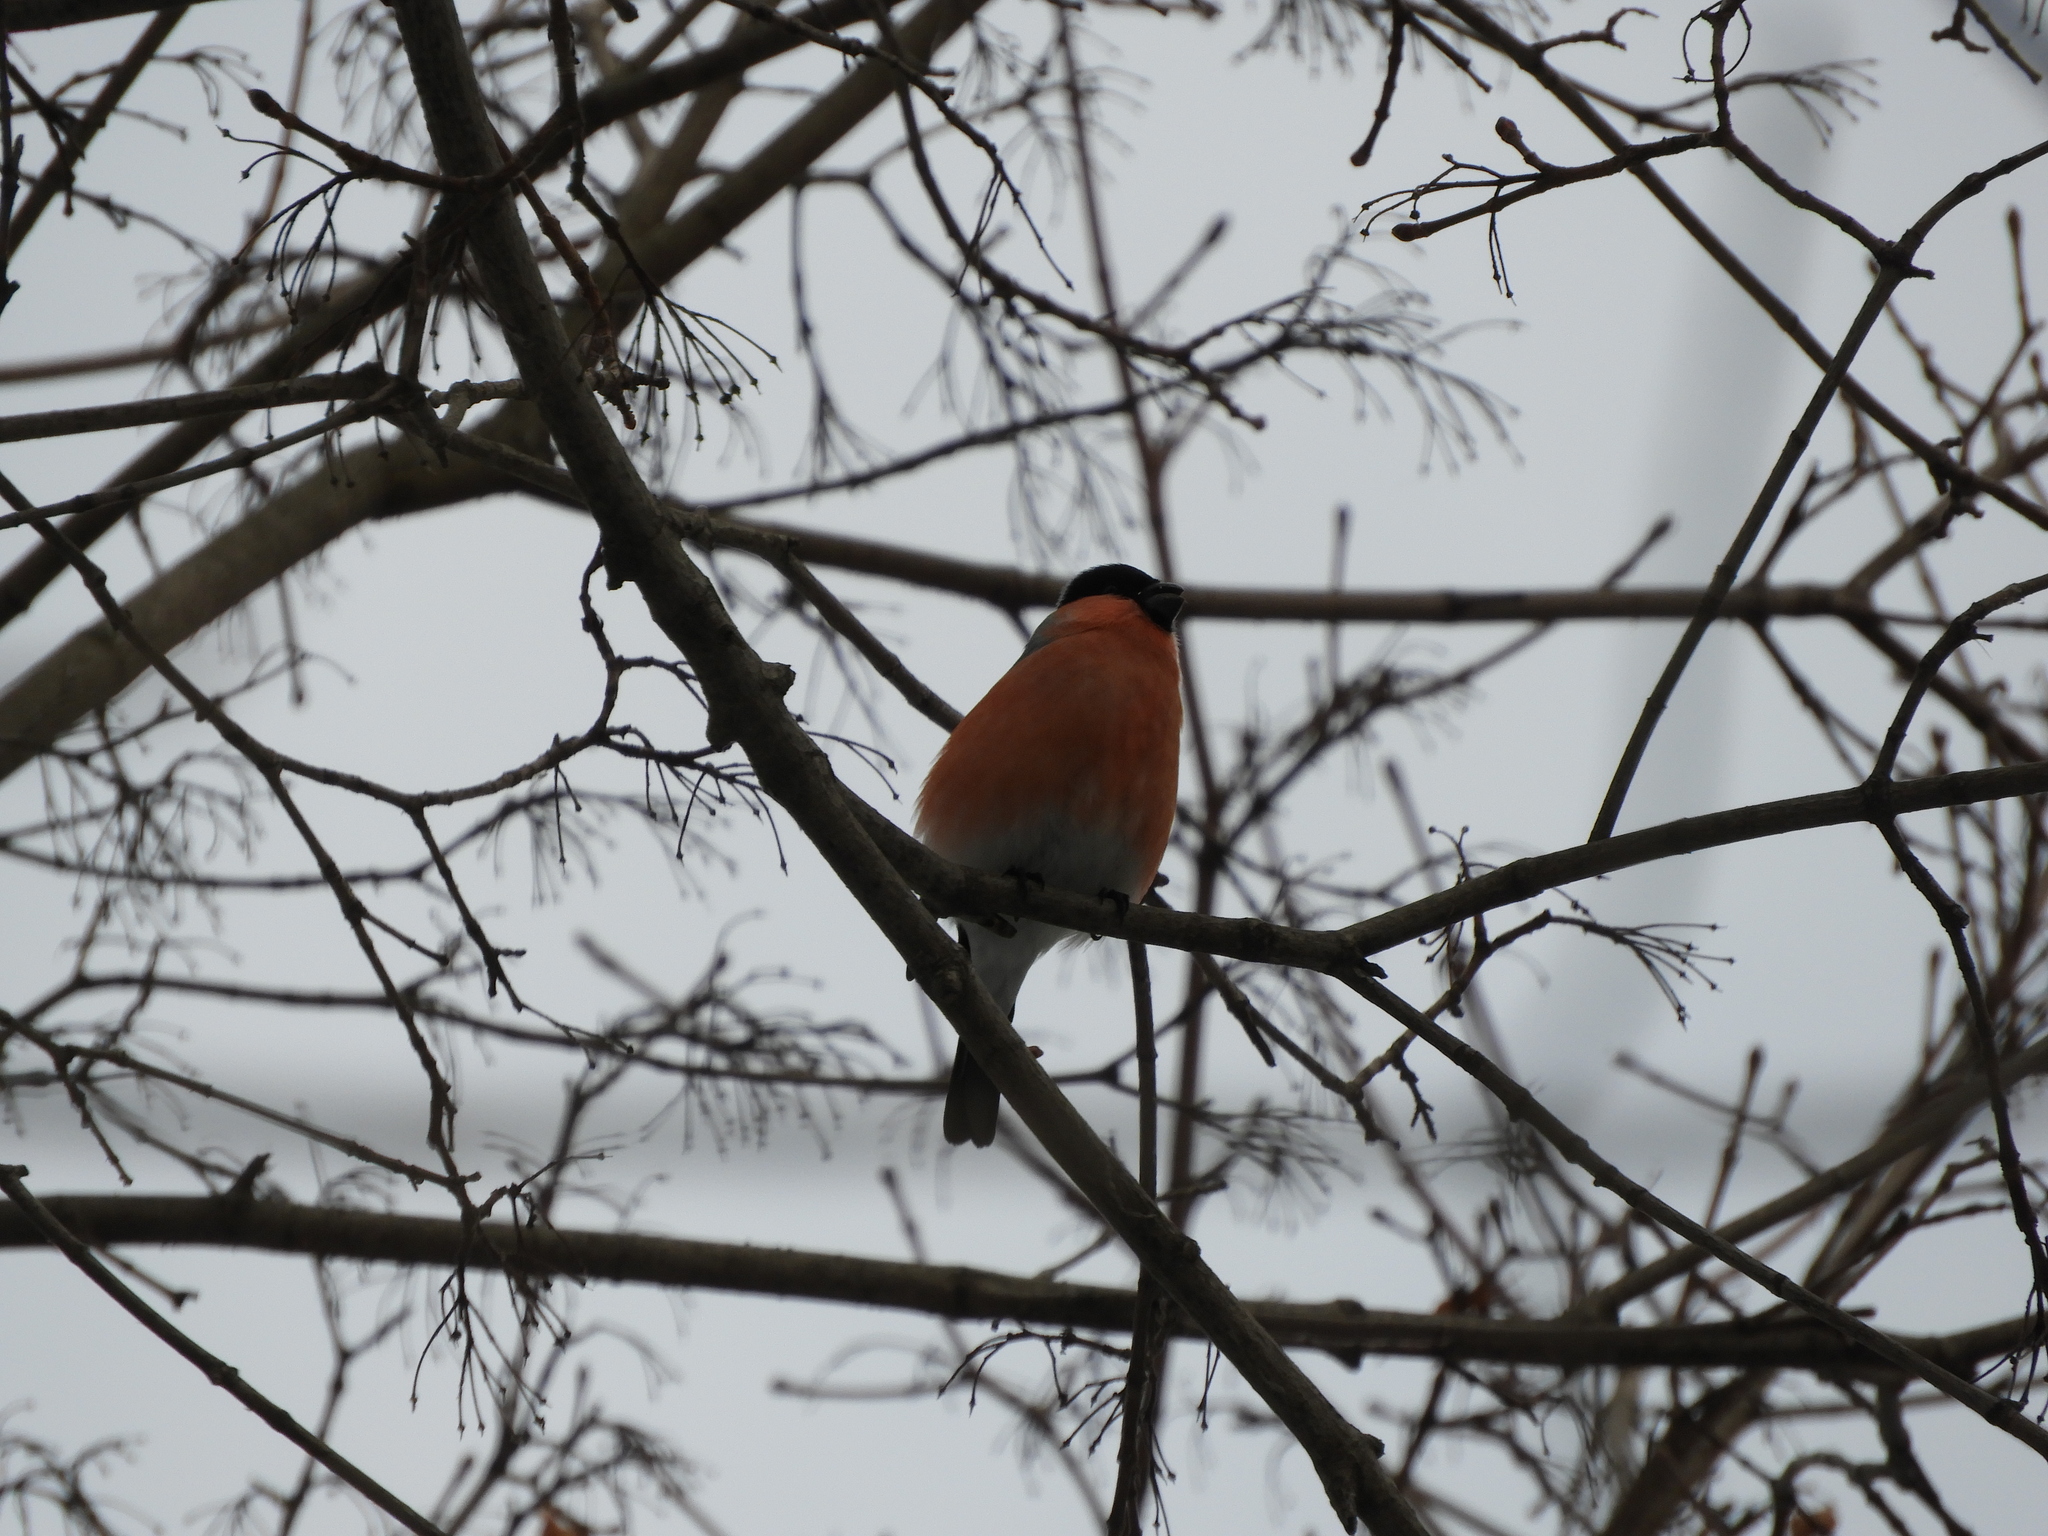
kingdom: Animalia
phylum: Chordata
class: Aves
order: Passeriformes
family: Fringillidae
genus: Pyrrhula
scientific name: Pyrrhula pyrrhula
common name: Eurasian bullfinch
